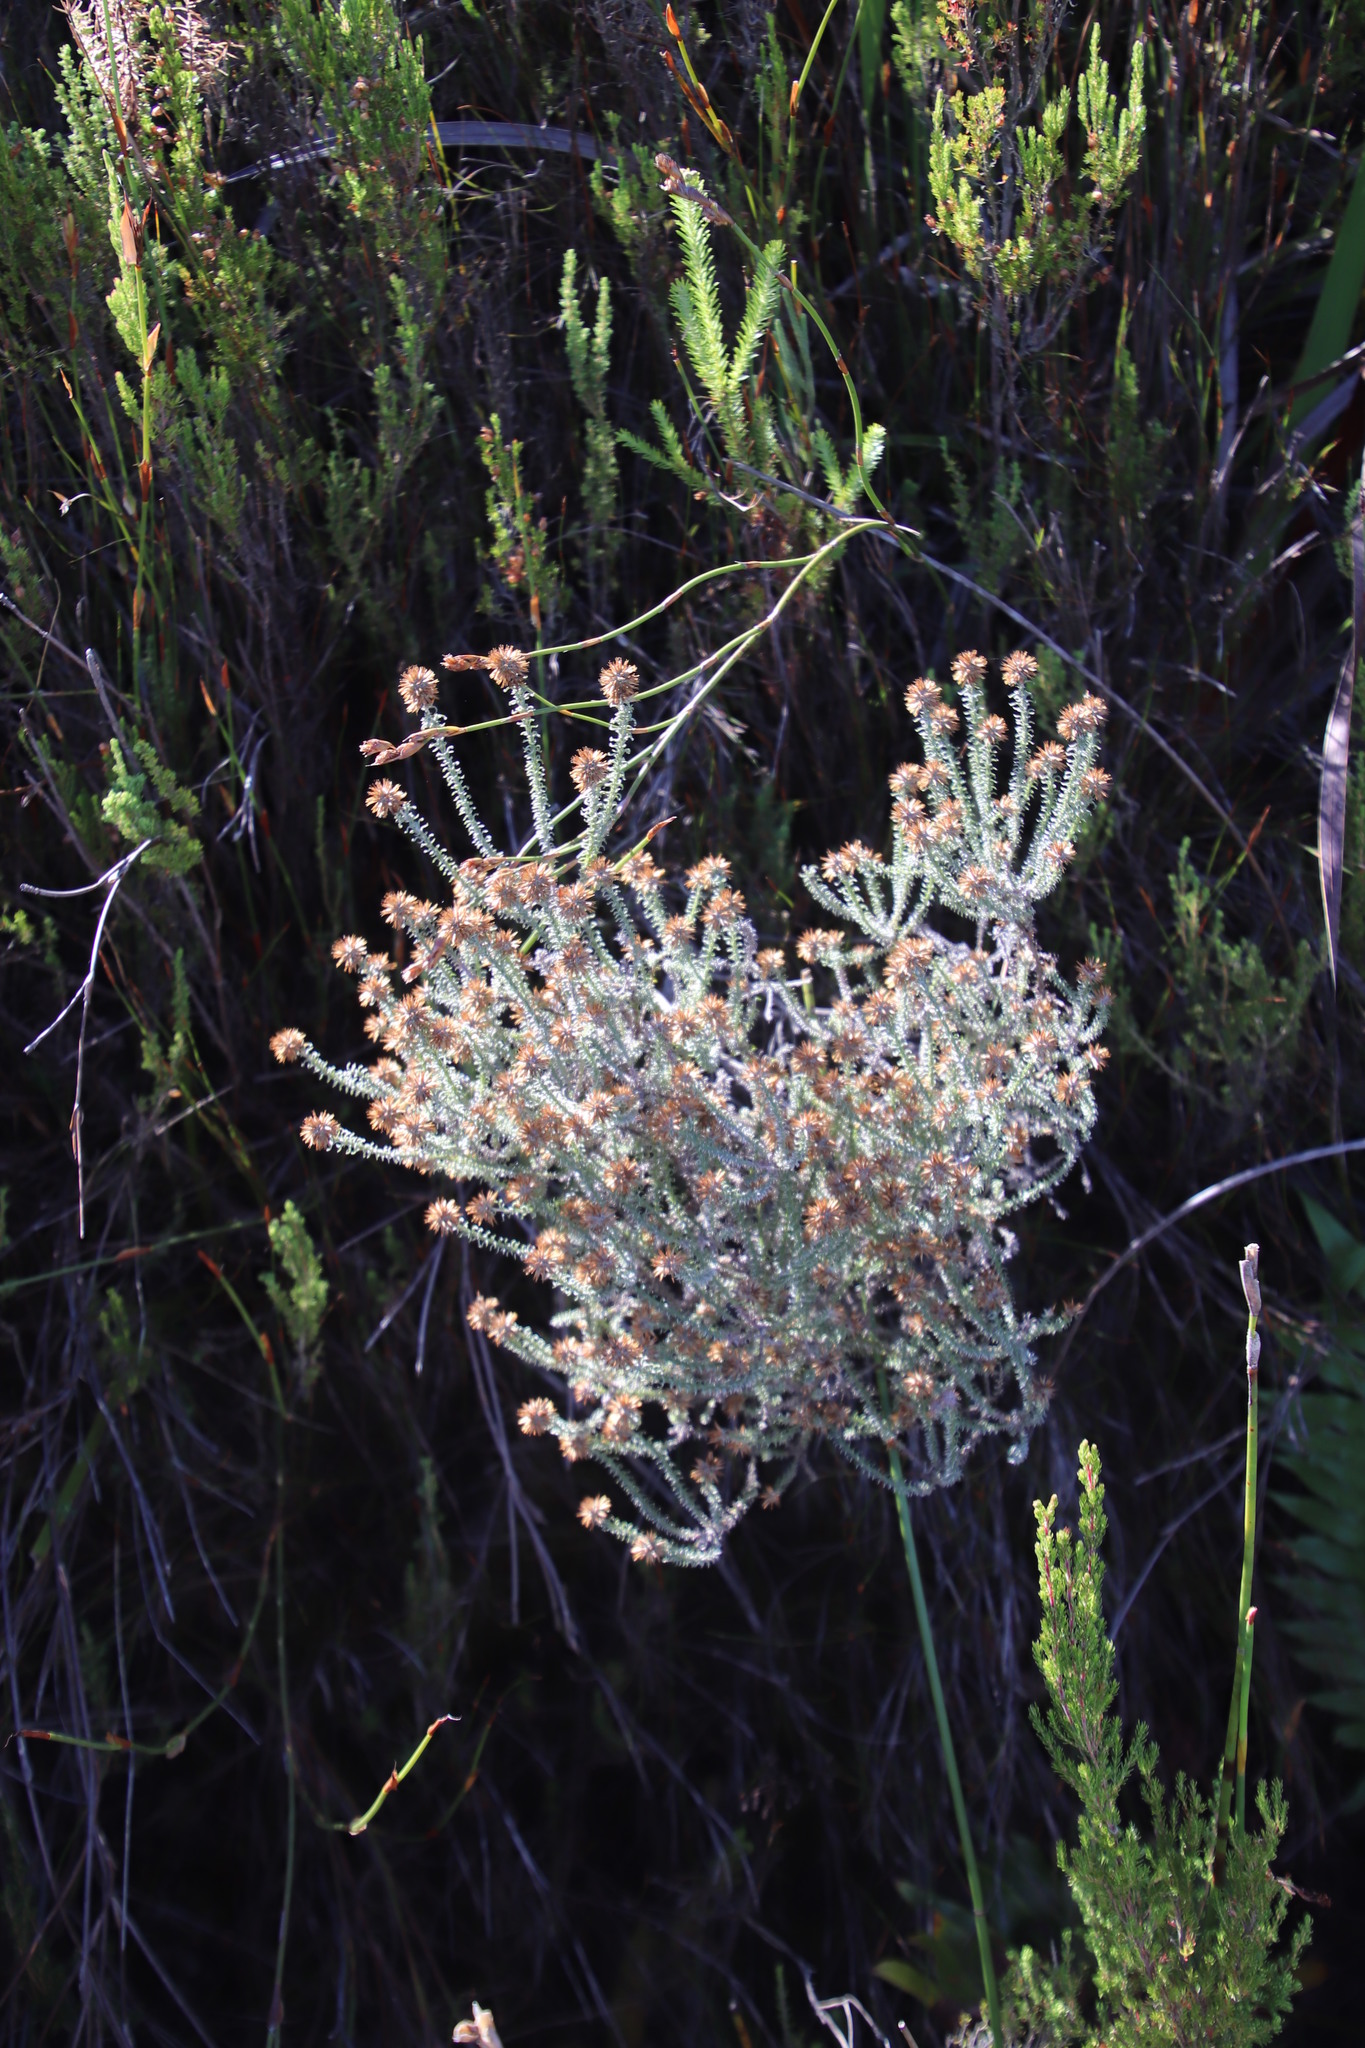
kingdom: Plantae
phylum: Tracheophyta
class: Magnoliopsida
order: Asterales
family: Asteraceae
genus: Seriphium
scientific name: Seriphium incanum
